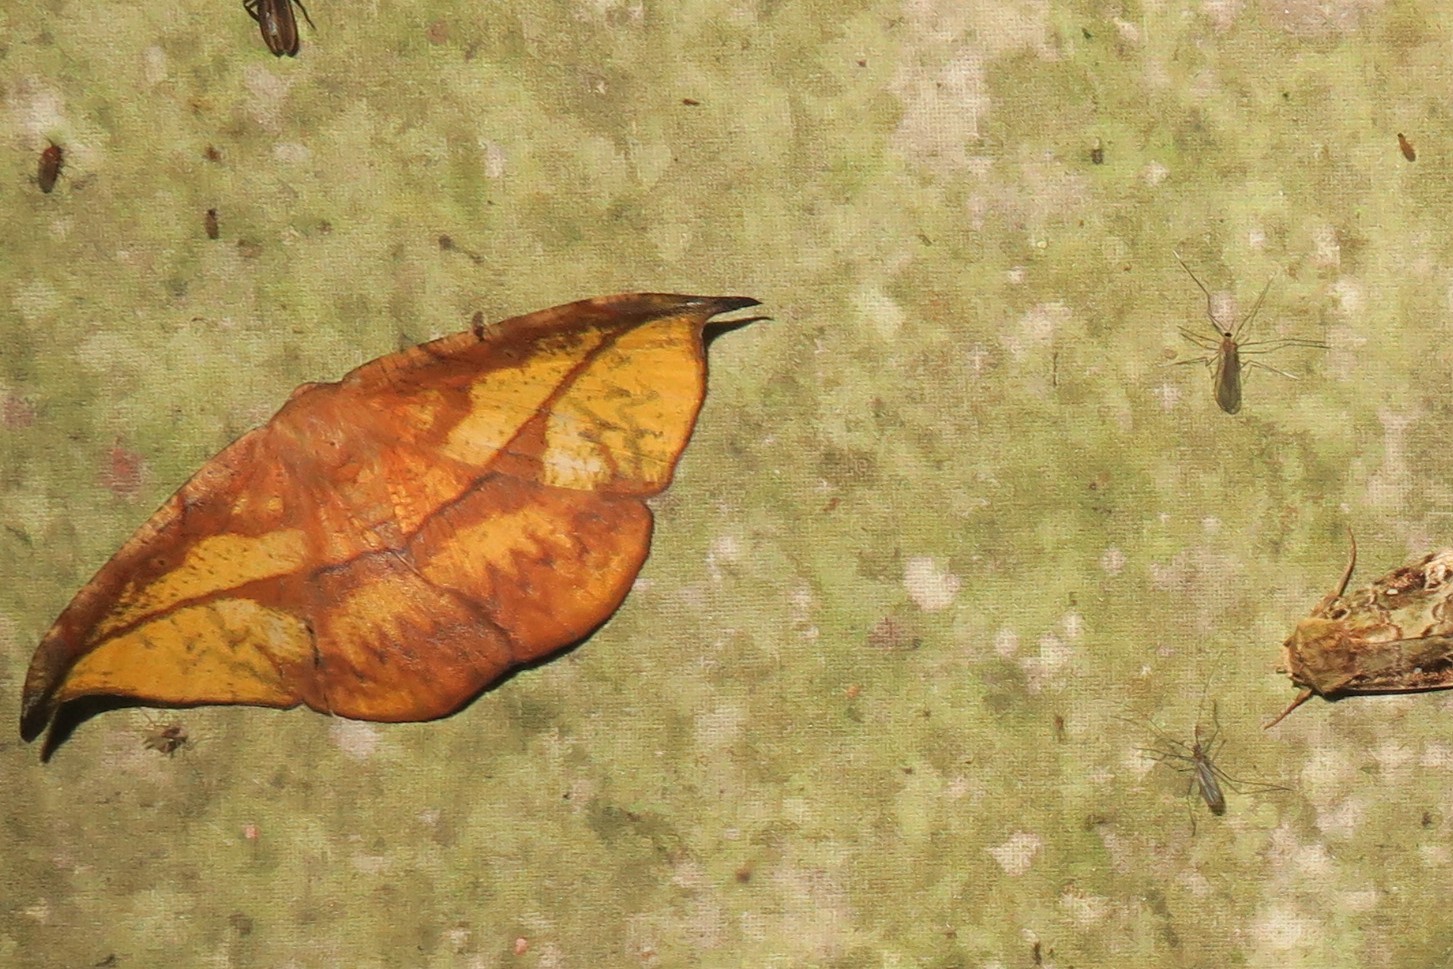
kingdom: Animalia
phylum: Arthropoda
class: Insecta
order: Lepidoptera
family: Geometridae
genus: Oxydia
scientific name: Oxydia geminata
